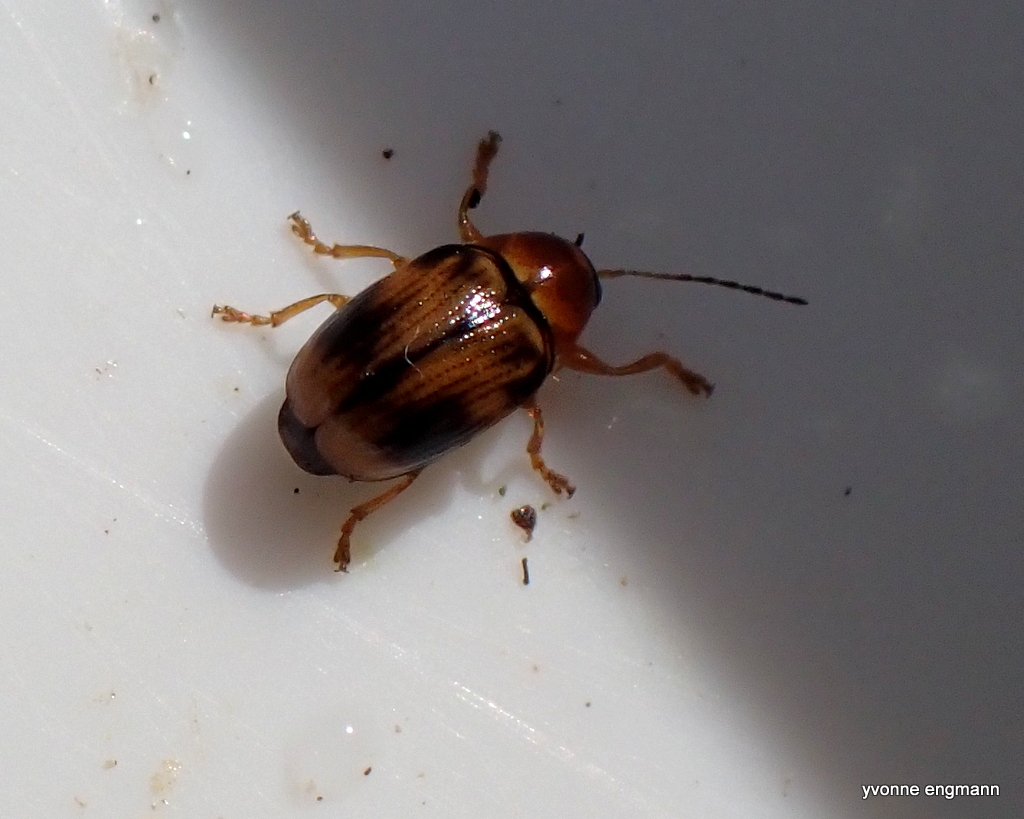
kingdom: Animalia
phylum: Arthropoda
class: Insecta
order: Coleoptera
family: Chrysomelidae
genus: Cryptocephalus
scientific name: Cryptocephalus pusillus
